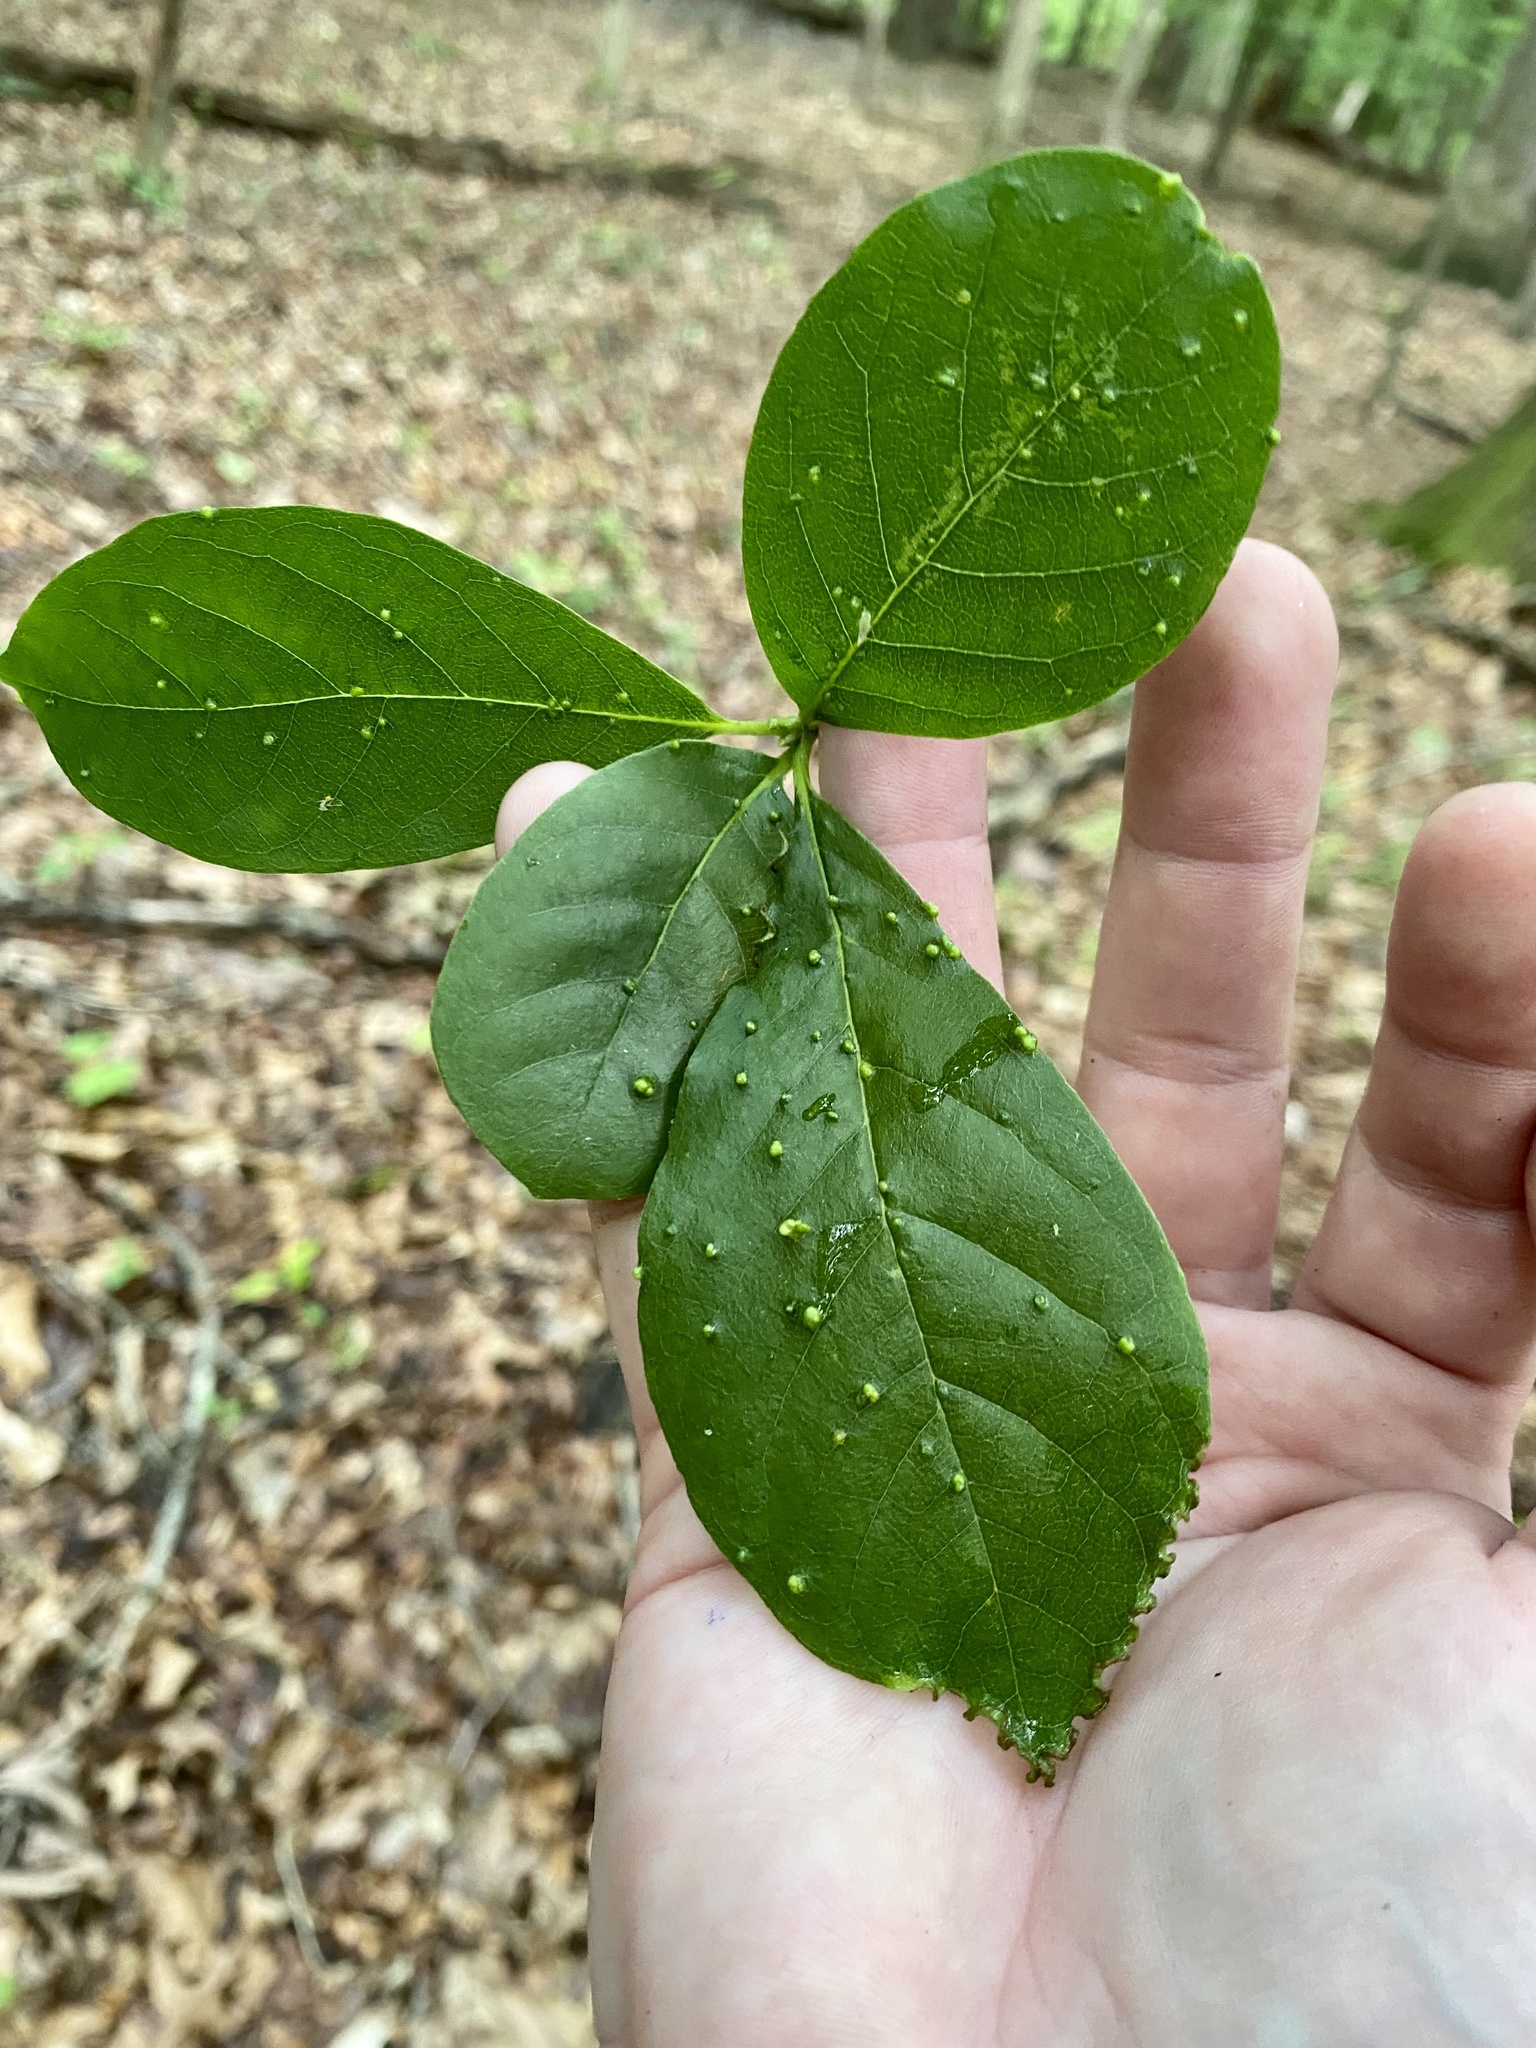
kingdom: Animalia
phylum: Arthropoda
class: Arachnida
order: Trombidiformes
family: Eriophyidae
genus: Aceria
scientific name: Aceria
